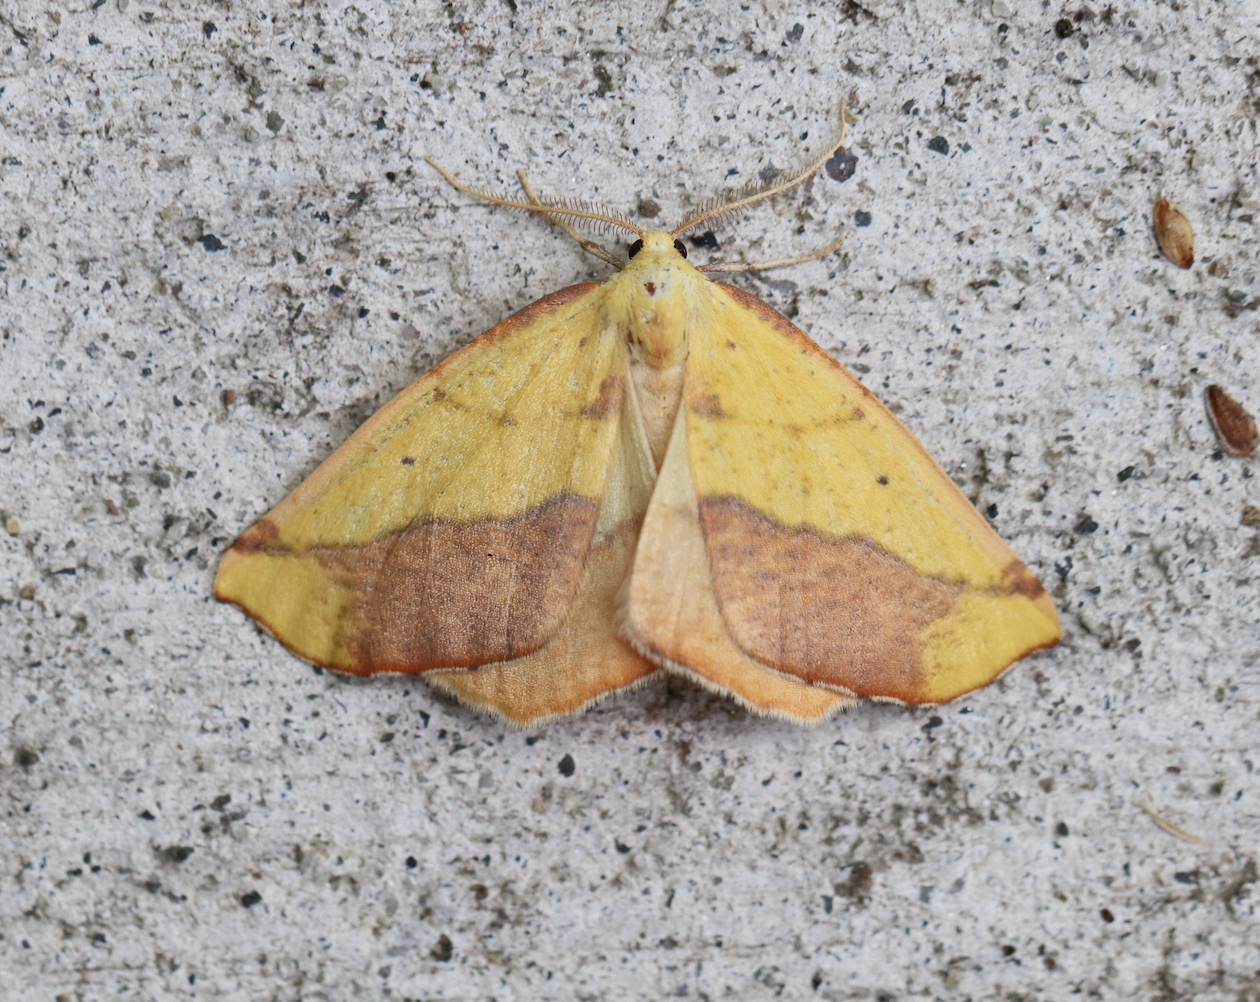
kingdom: Animalia
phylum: Arthropoda
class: Insecta
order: Lepidoptera
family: Geometridae
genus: Sicya
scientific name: Sicya macularia
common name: Sharp-lined yellow
